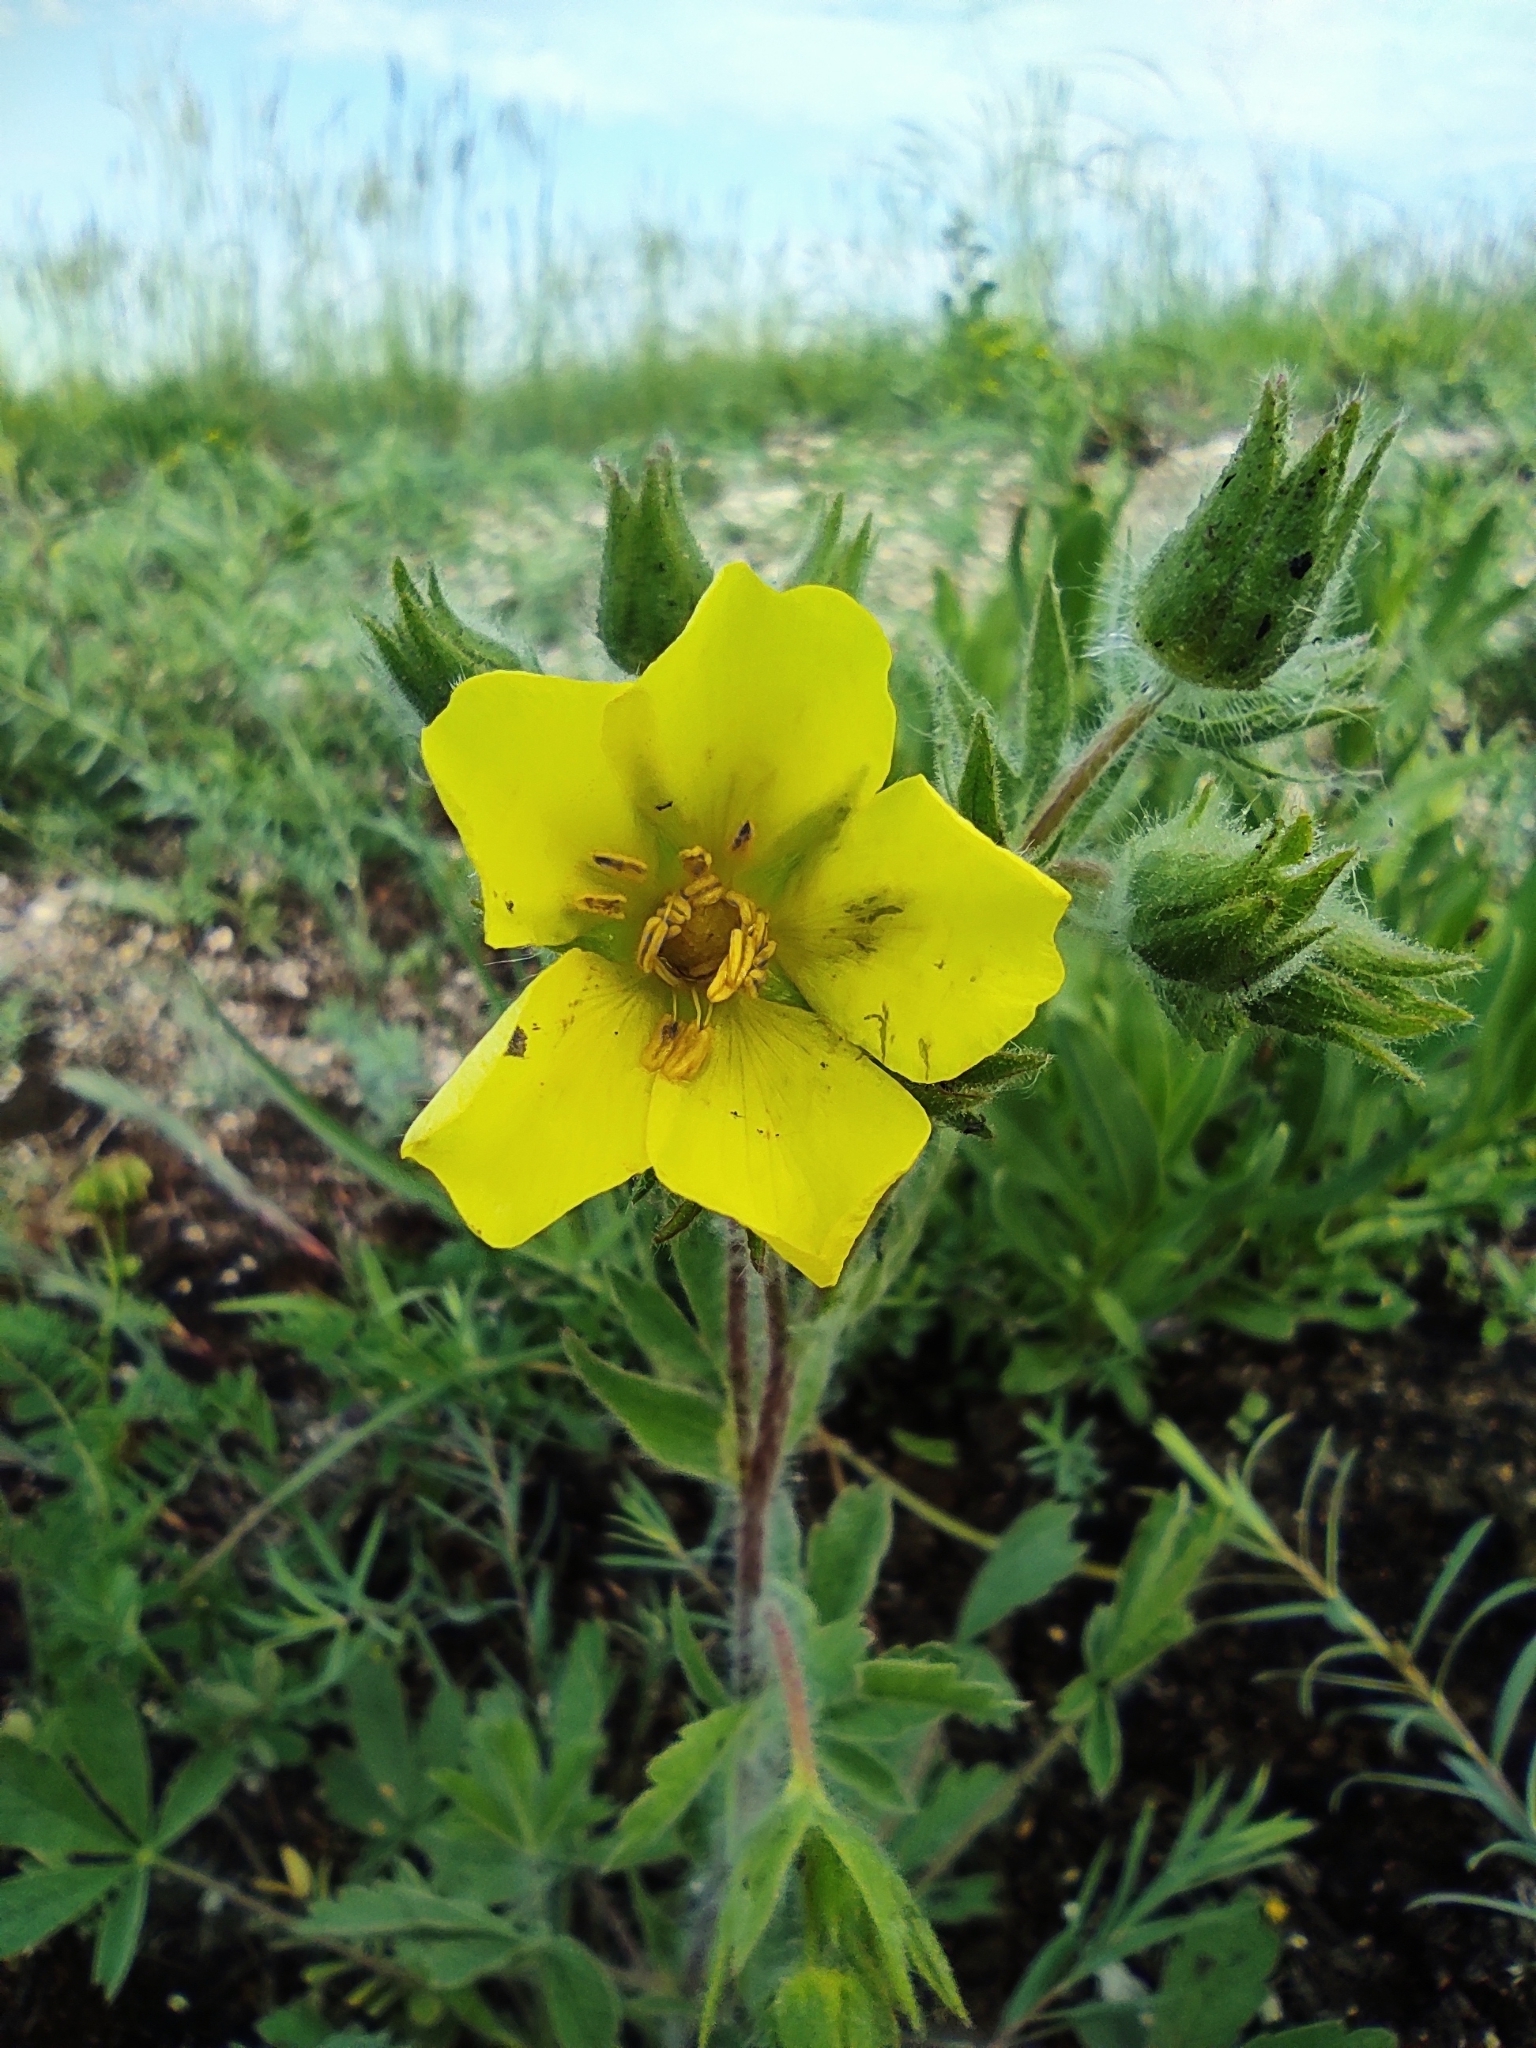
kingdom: Plantae
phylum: Tracheophyta
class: Magnoliopsida
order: Rosales
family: Rosaceae
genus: Potentilla
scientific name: Potentilla astracanica
